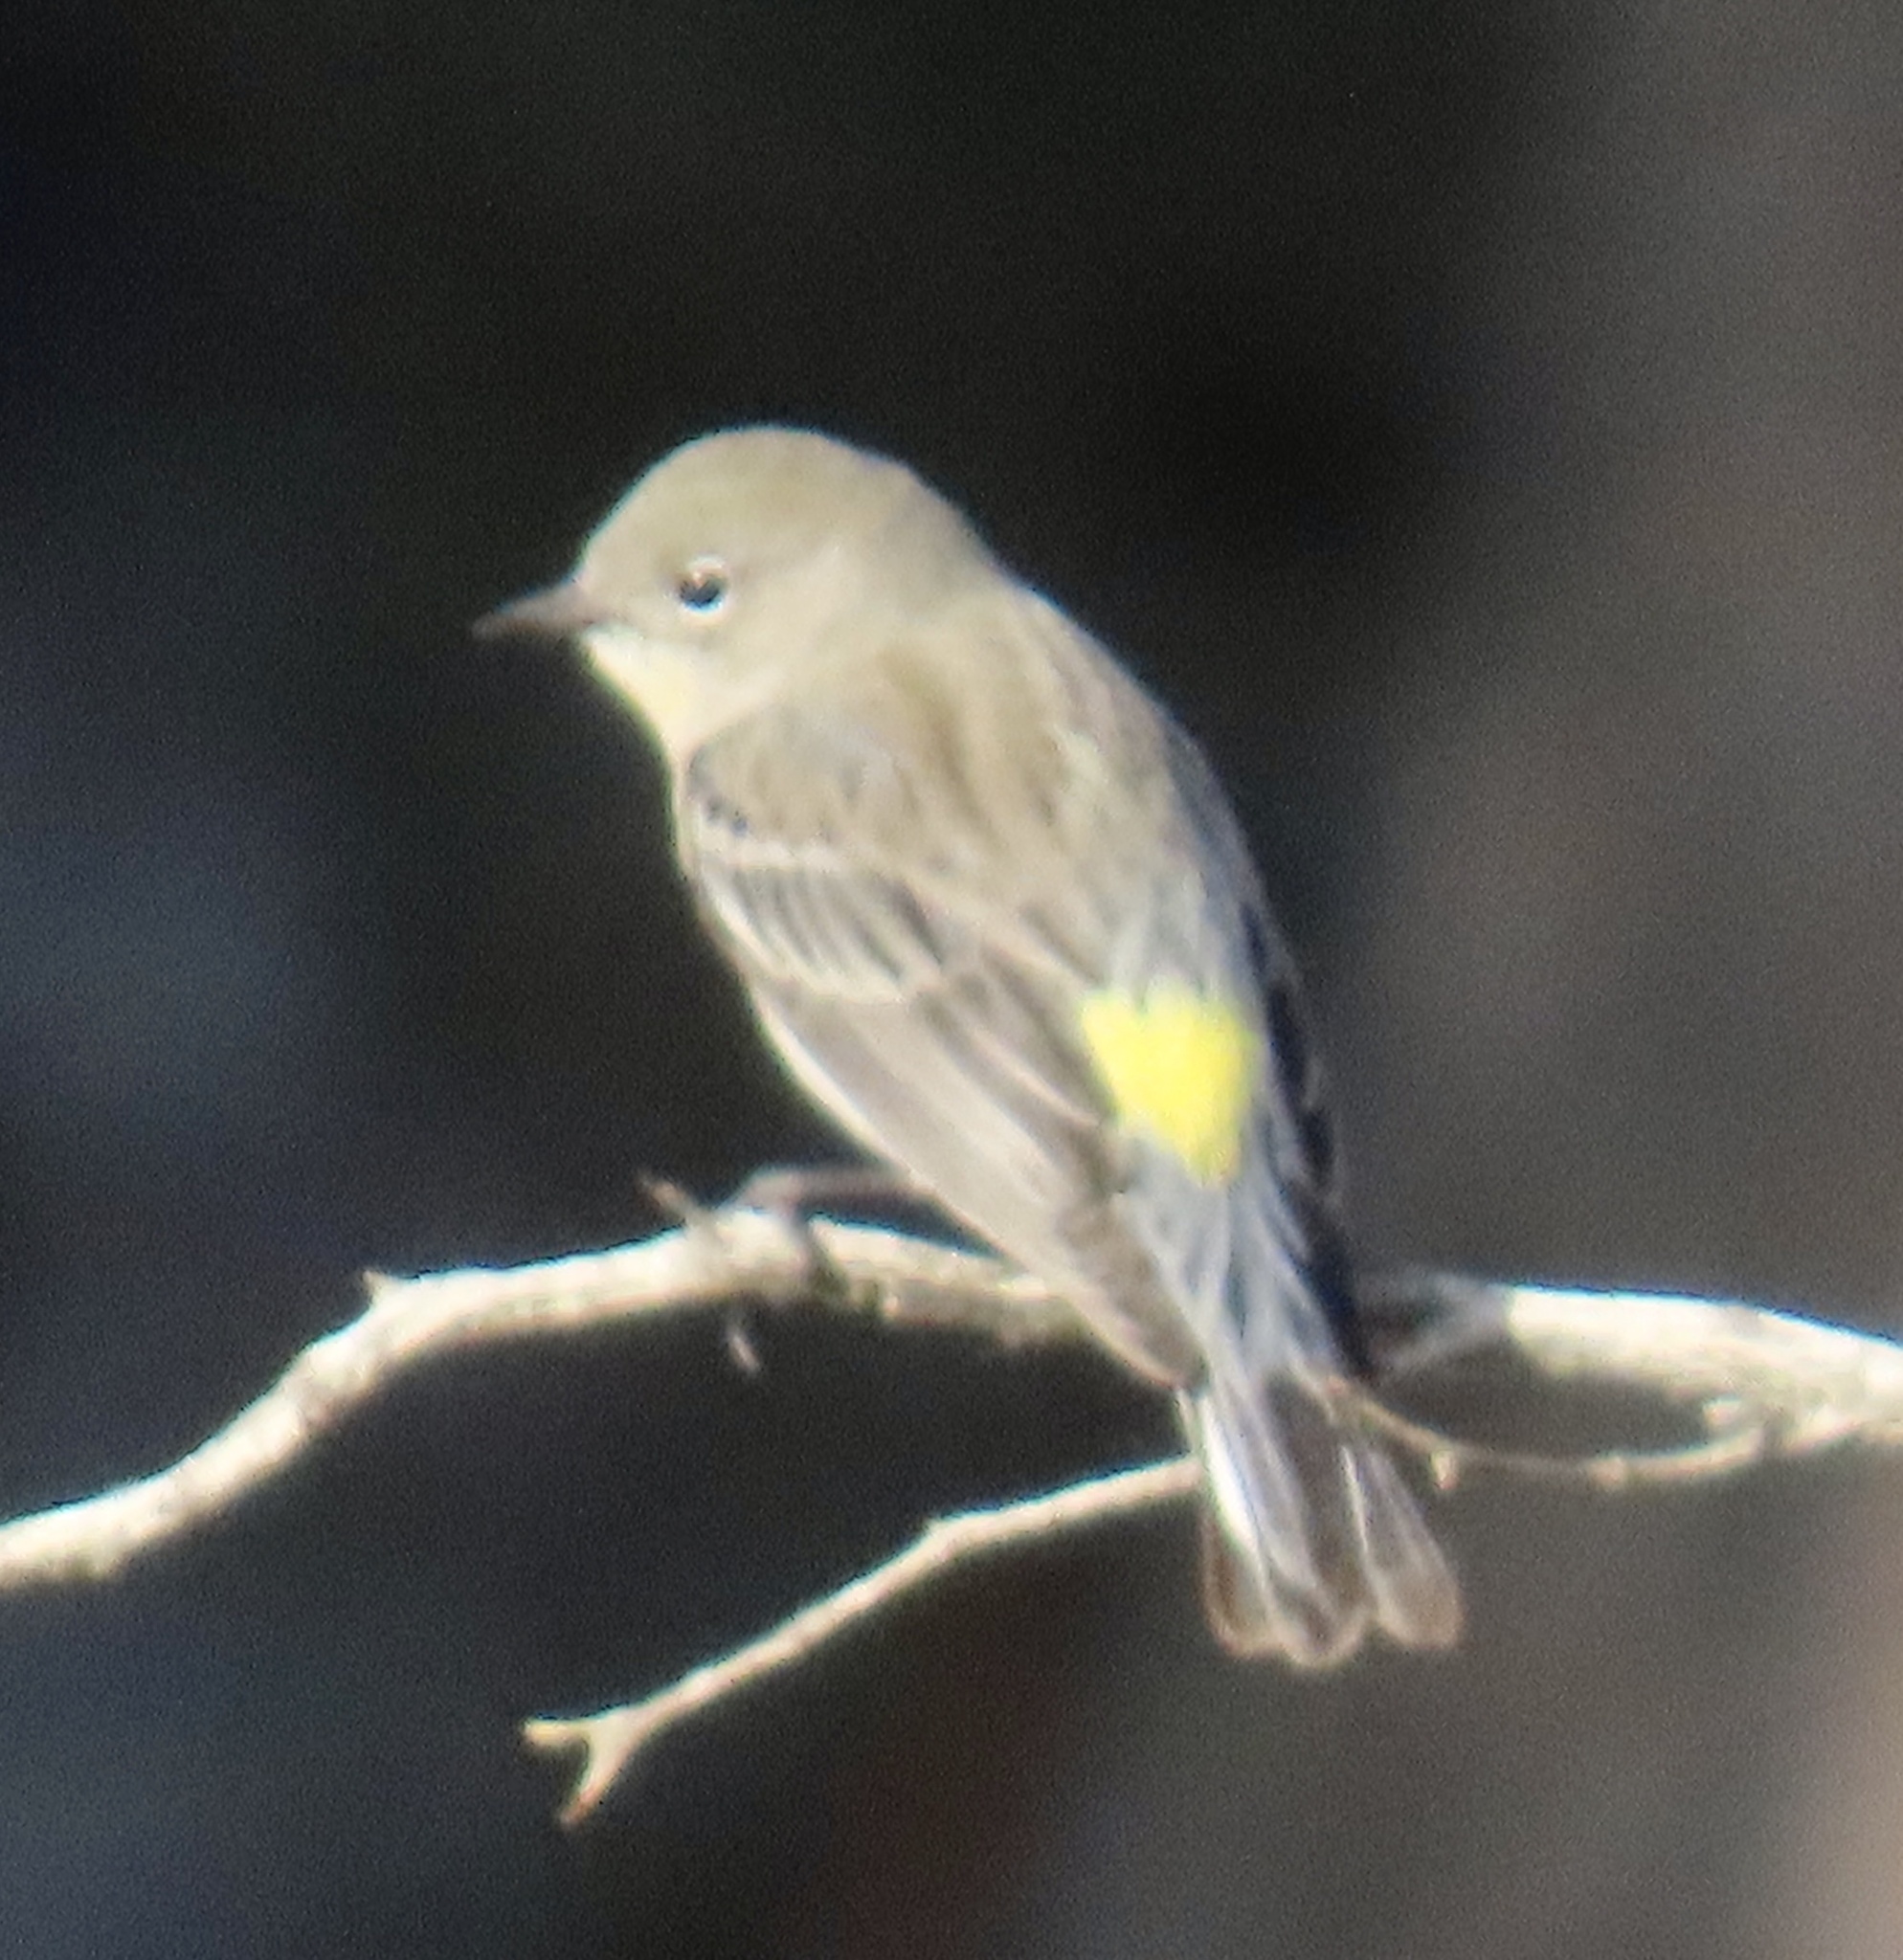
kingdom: Animalia
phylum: Chordata
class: Aves
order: Passeriformes
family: Parulidae
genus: Setophaga
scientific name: Setophaga coronata
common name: Myrtle warbler
